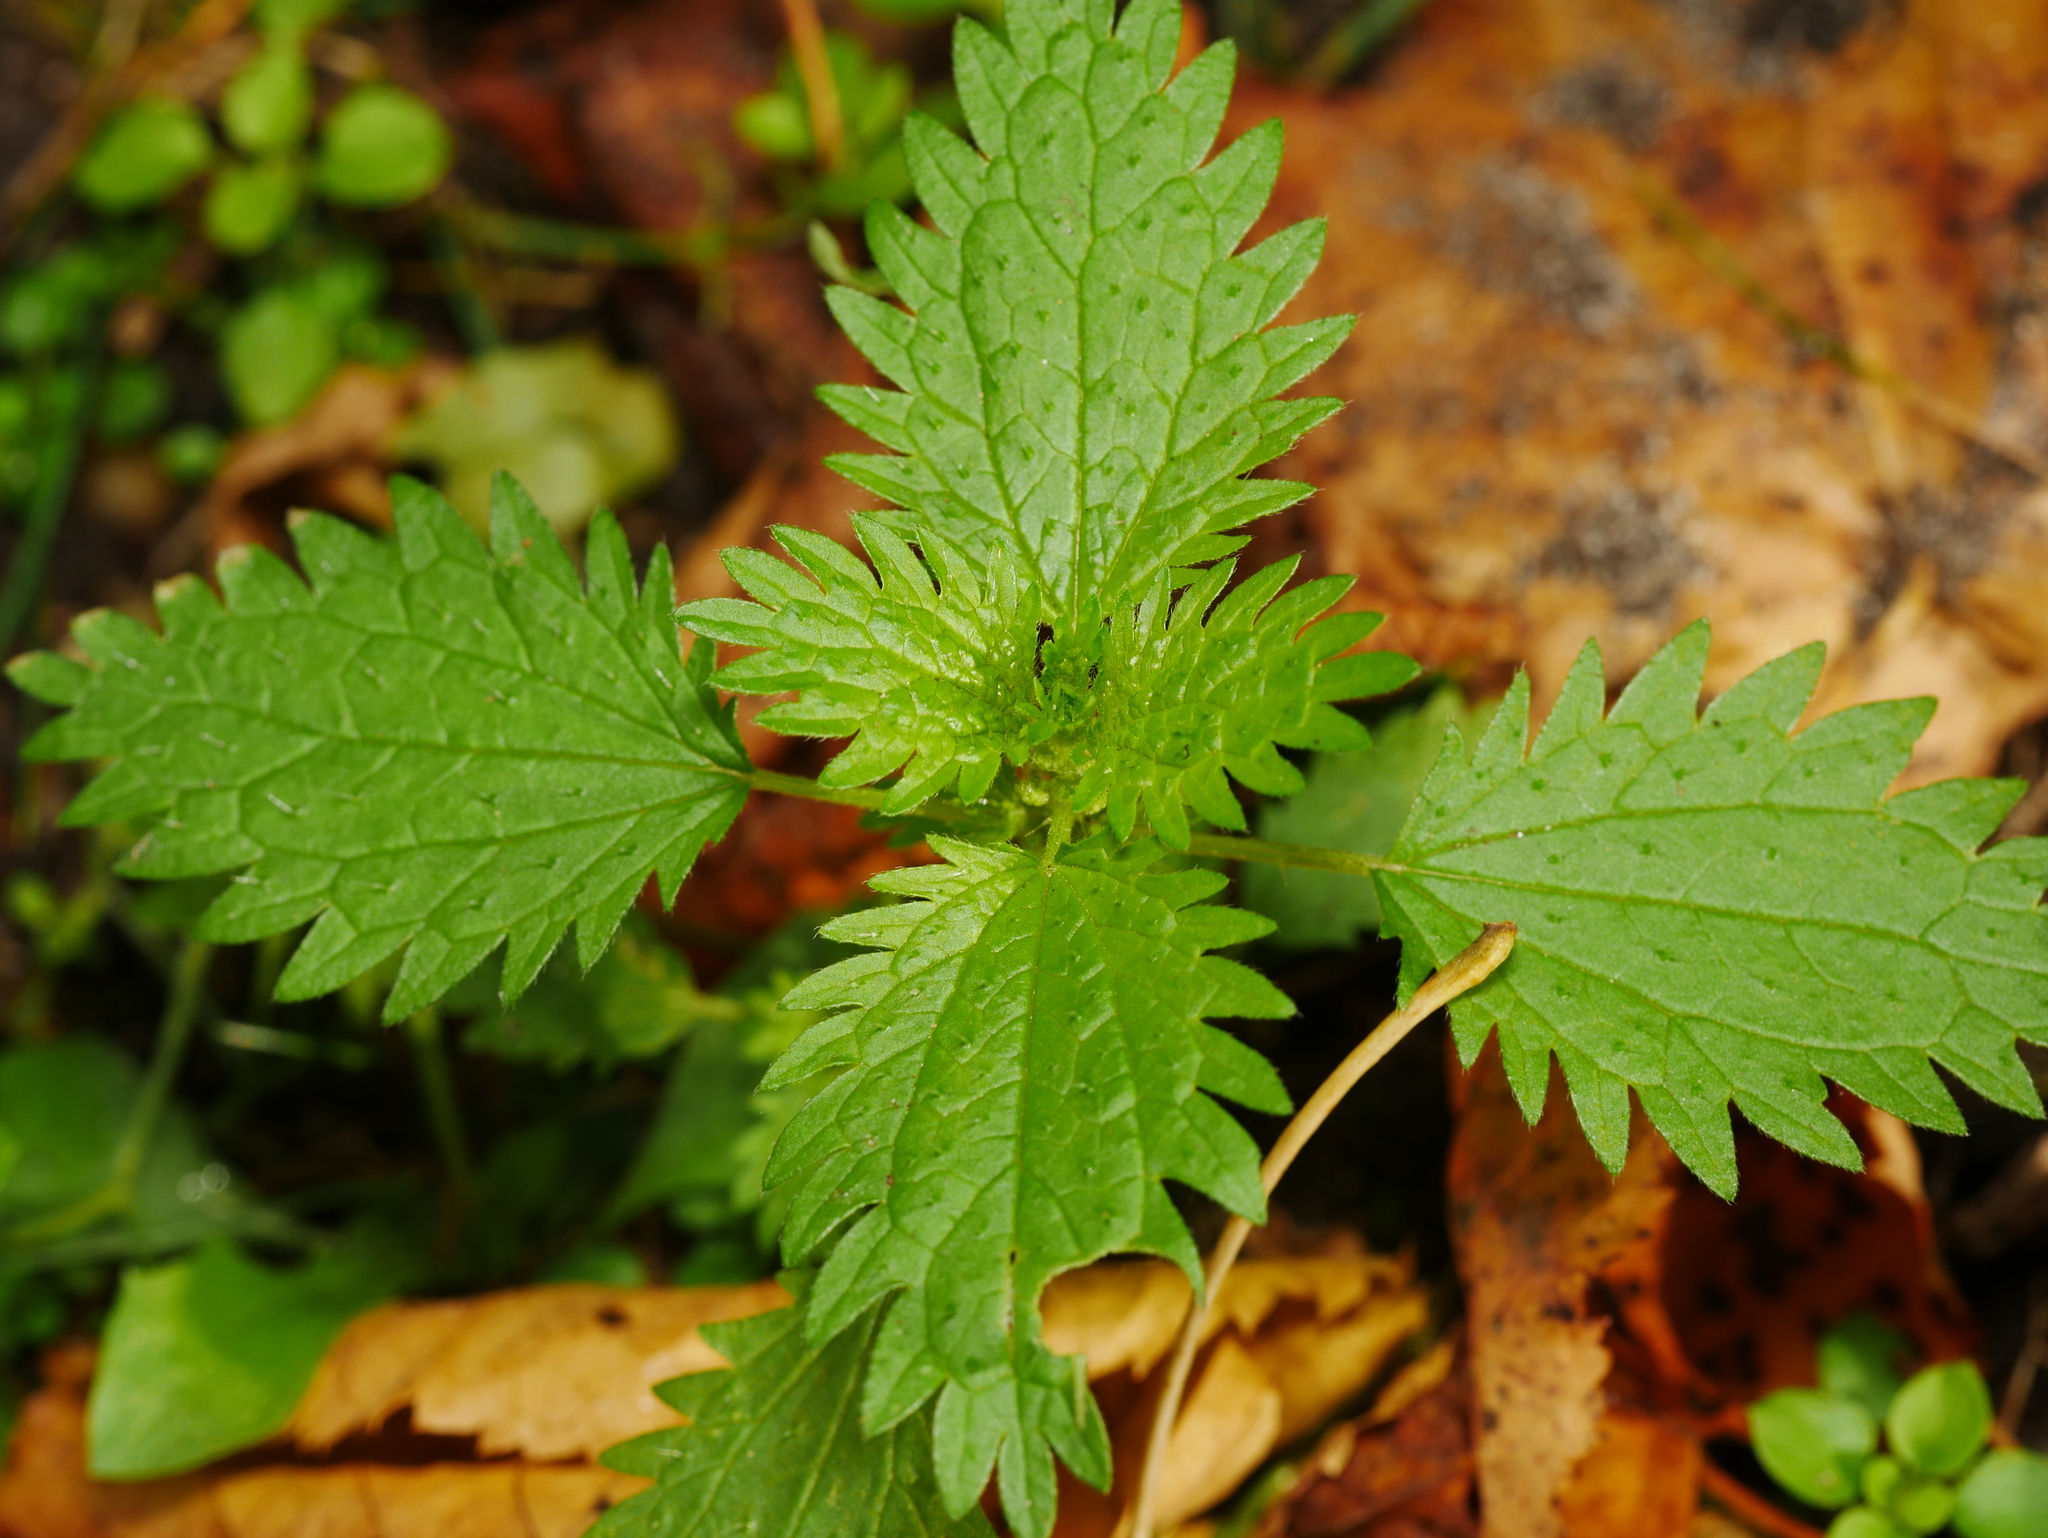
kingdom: Plantae
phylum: Tracheophyta
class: Magnoliopsida
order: Rosales
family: Urticaceae
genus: Urtica
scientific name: Urtica urens
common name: Dwarf nettle
